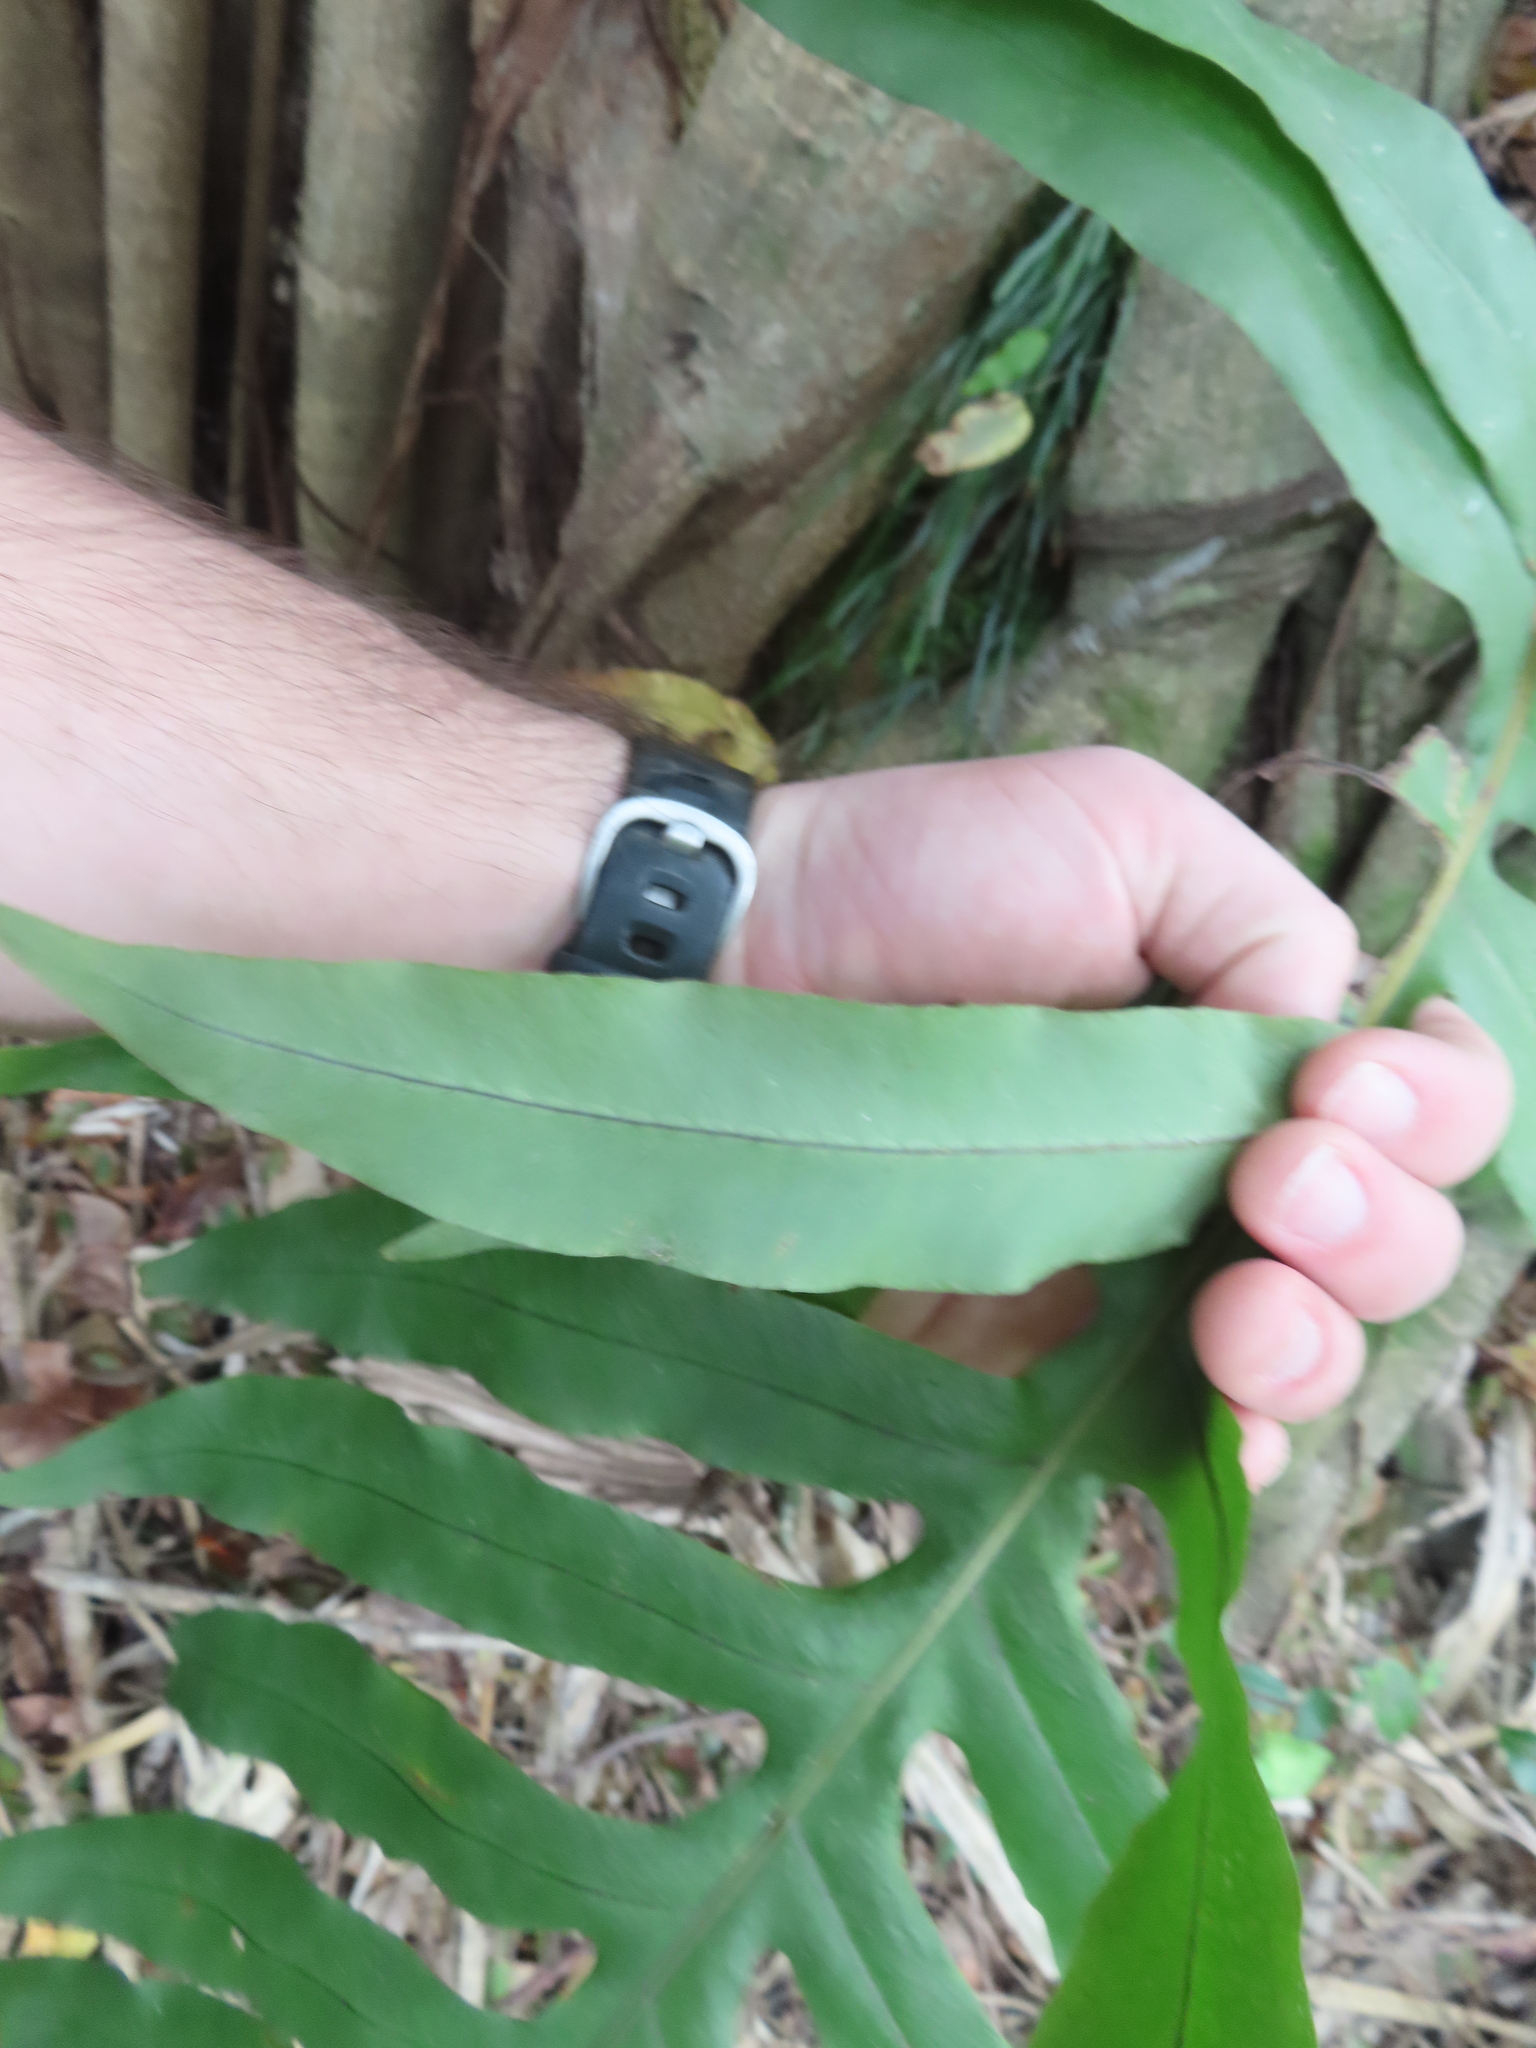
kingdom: Plantae
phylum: Tracheophyta
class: Polypodiopsida
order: Polypodiales
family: Polypodiaceae
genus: Phlebodium
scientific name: Phlebodium aureum
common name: Gold-foot fern
